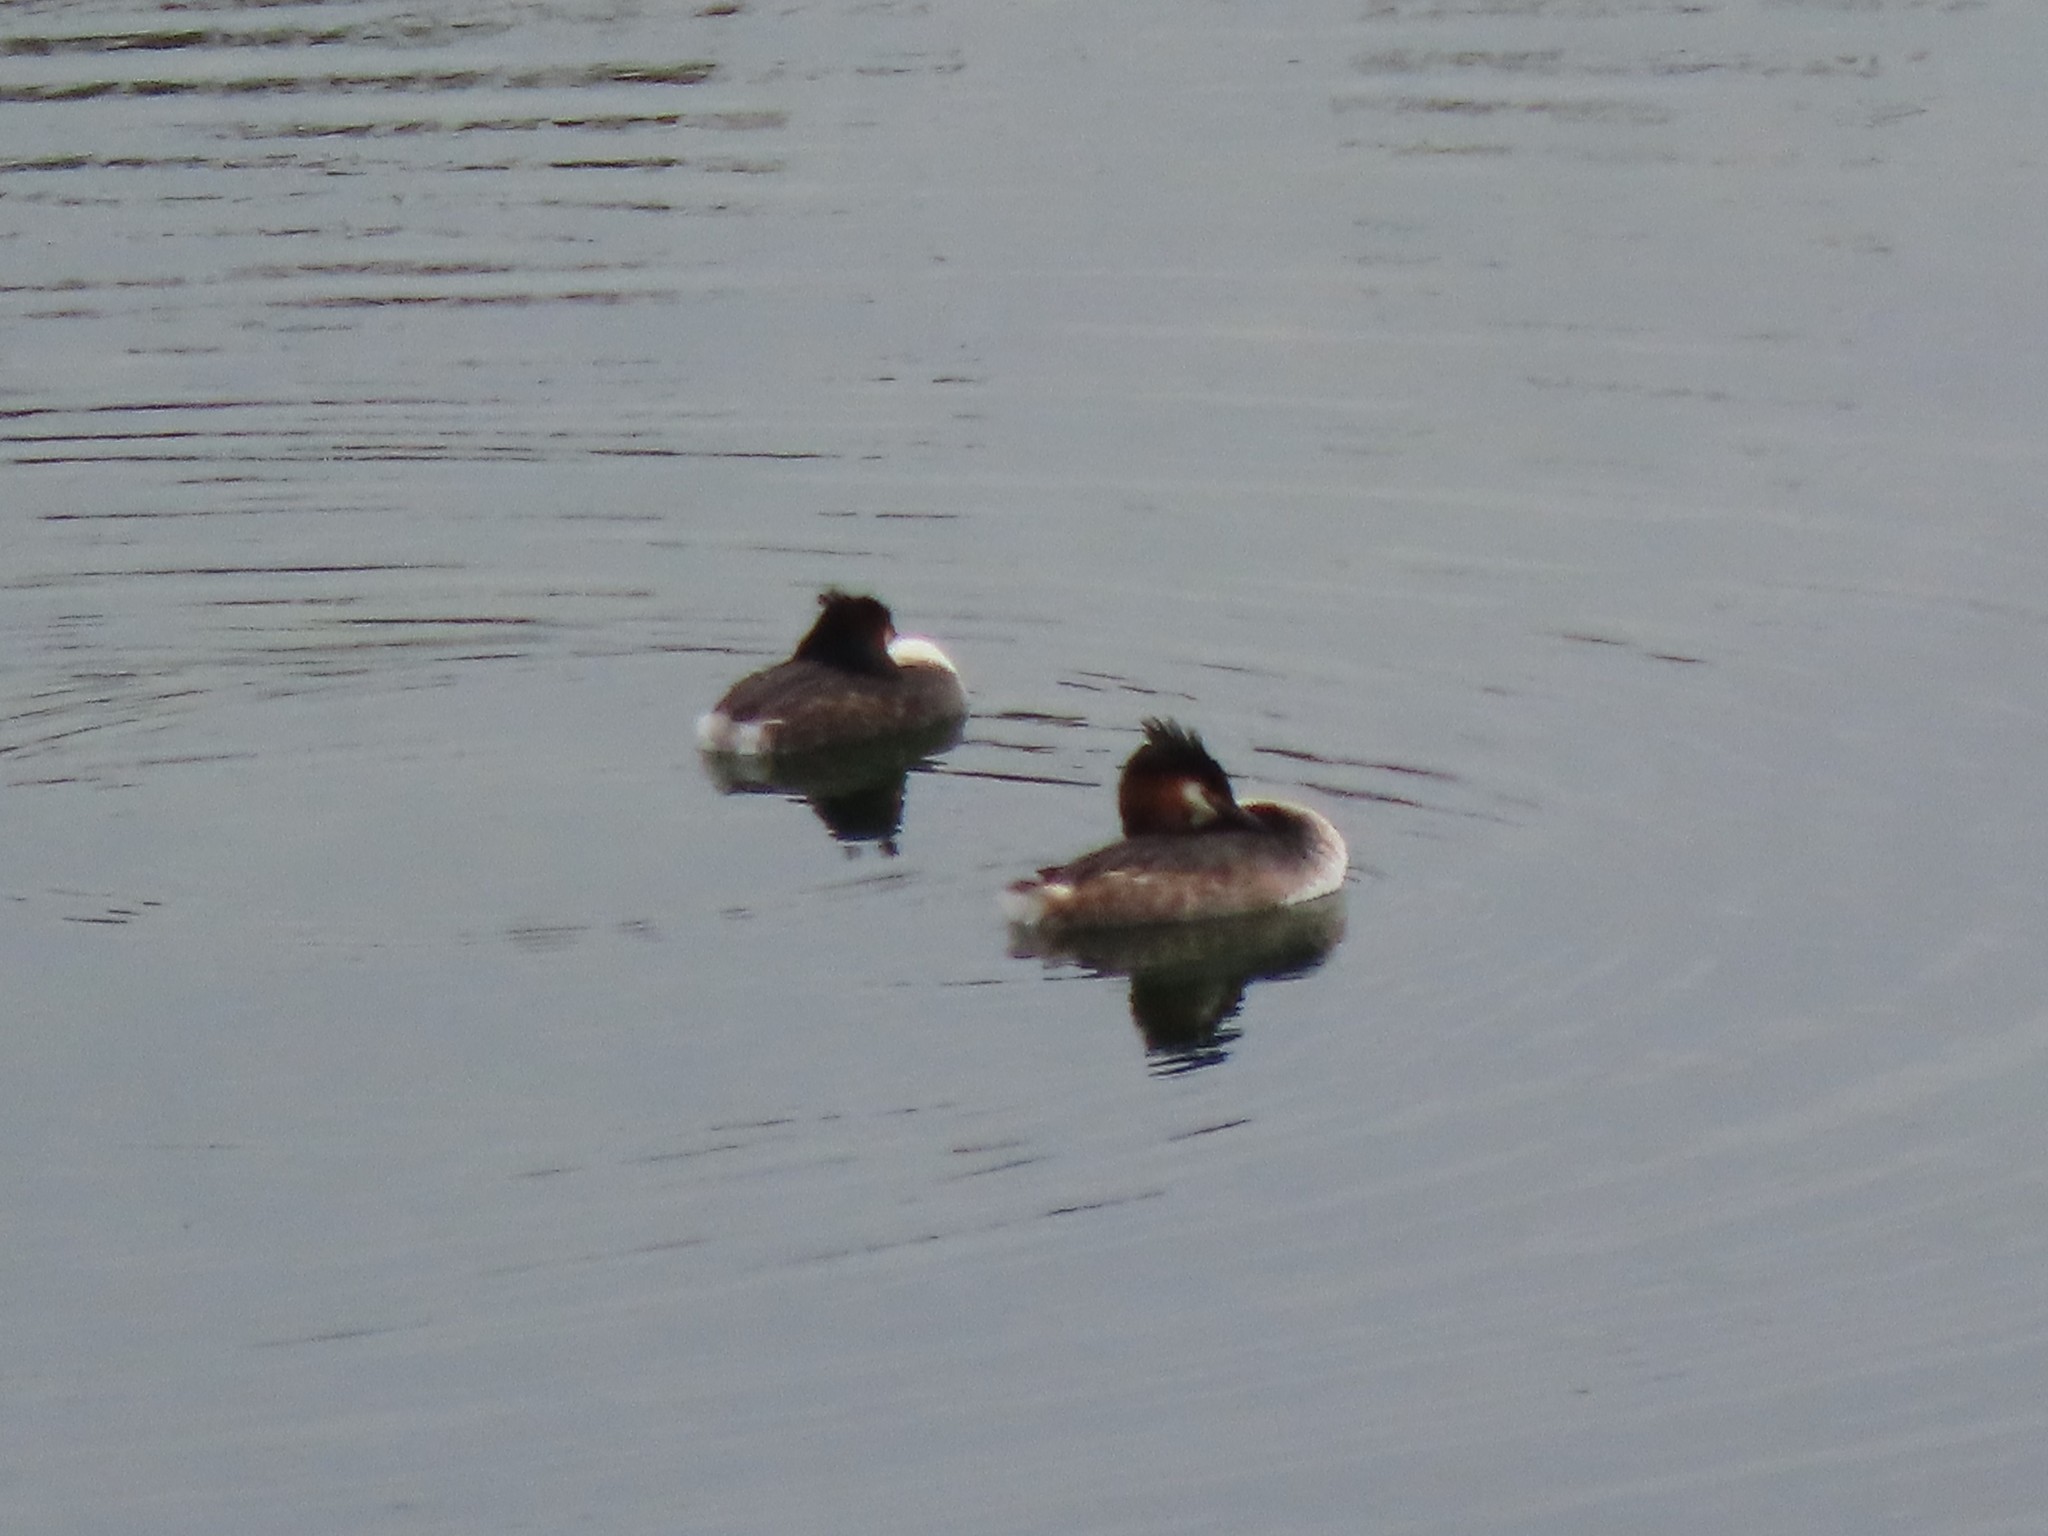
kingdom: Animalia
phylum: Chordata
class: Aves
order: Podicipediformes
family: Podicipedidae
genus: Podiceps
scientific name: Podiceps cristatus
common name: Great crested grebe
